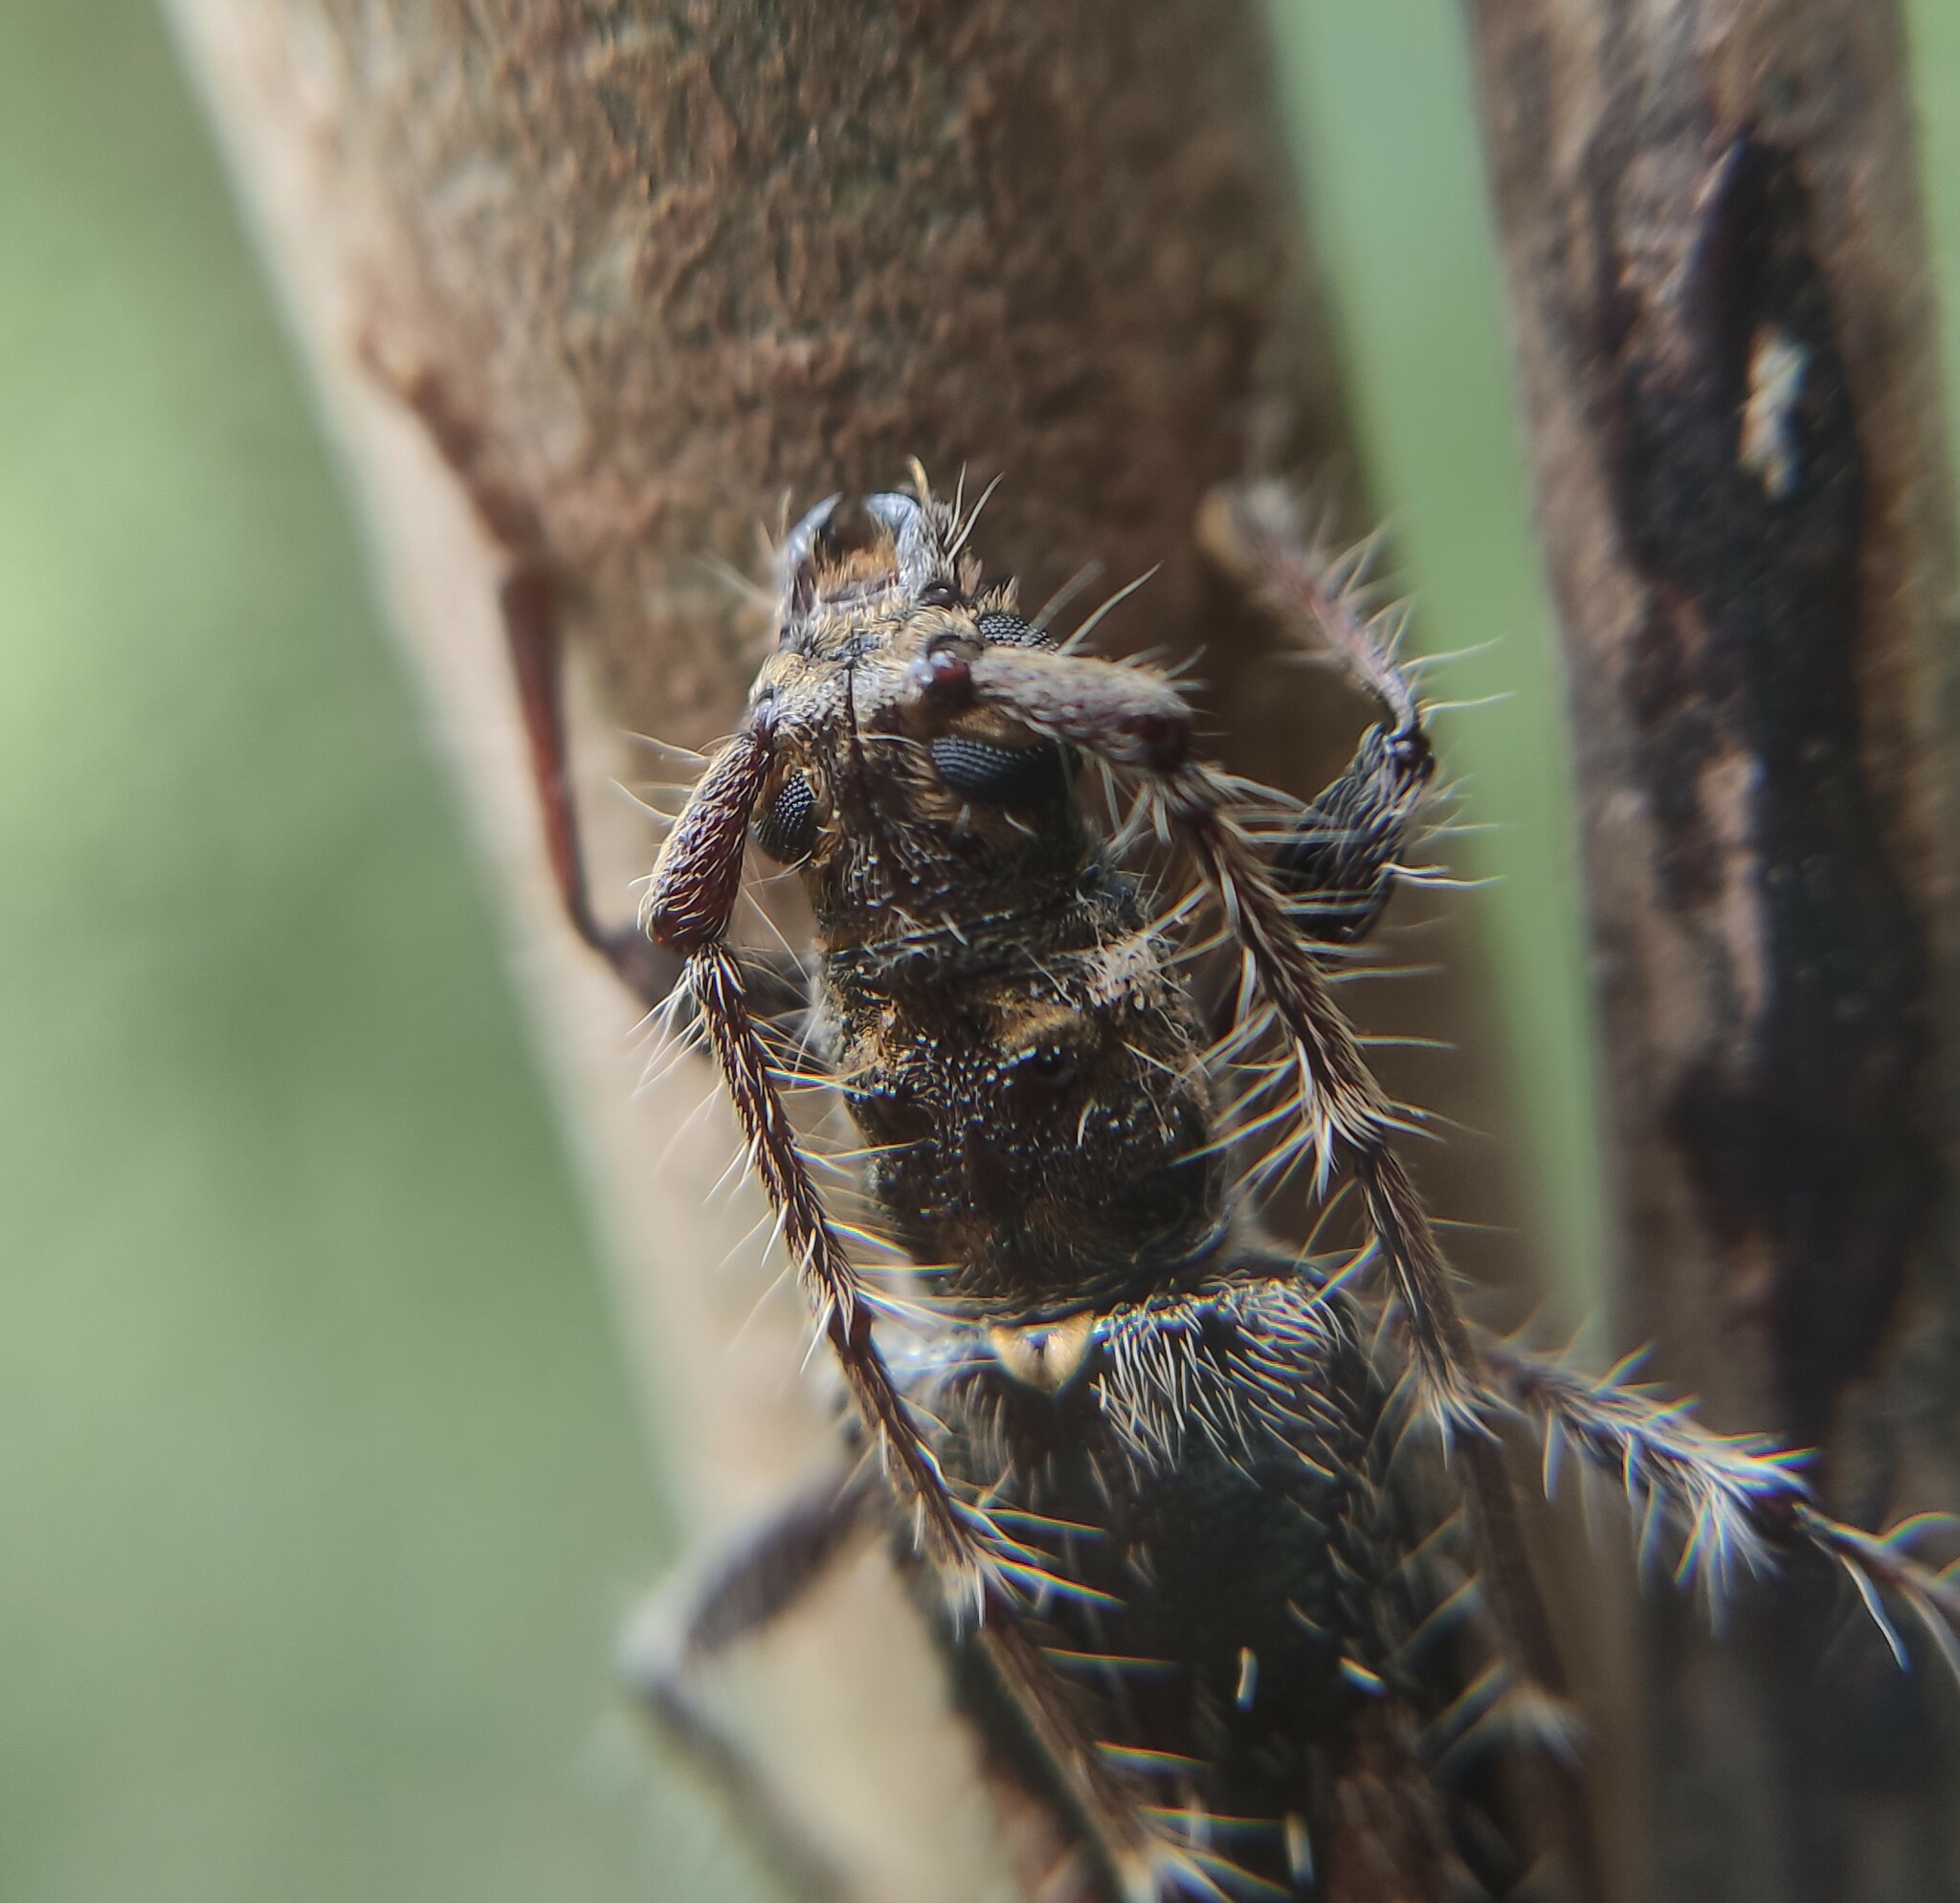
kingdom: Animalia
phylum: Arthropoda
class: Insecta
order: Coleoptera
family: Cerambycidae
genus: Eurysthea
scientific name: Eurysthea obliqua
